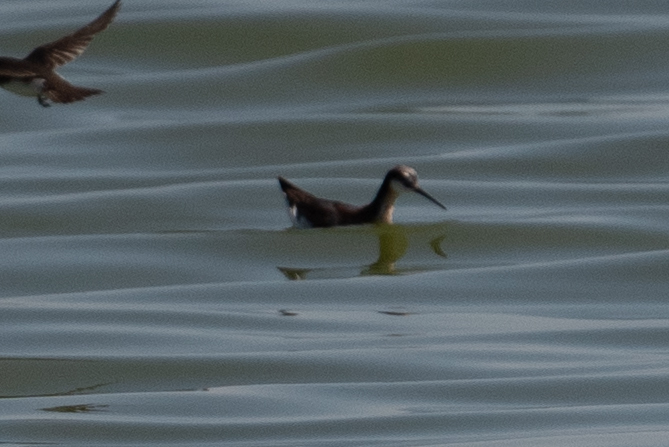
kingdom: Animalia
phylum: Chordata
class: Aves
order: Charadriiformes
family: Scolopacidae
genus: Phalaropus
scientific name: Phalaropus tricolor
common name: Wilson's phalarope
